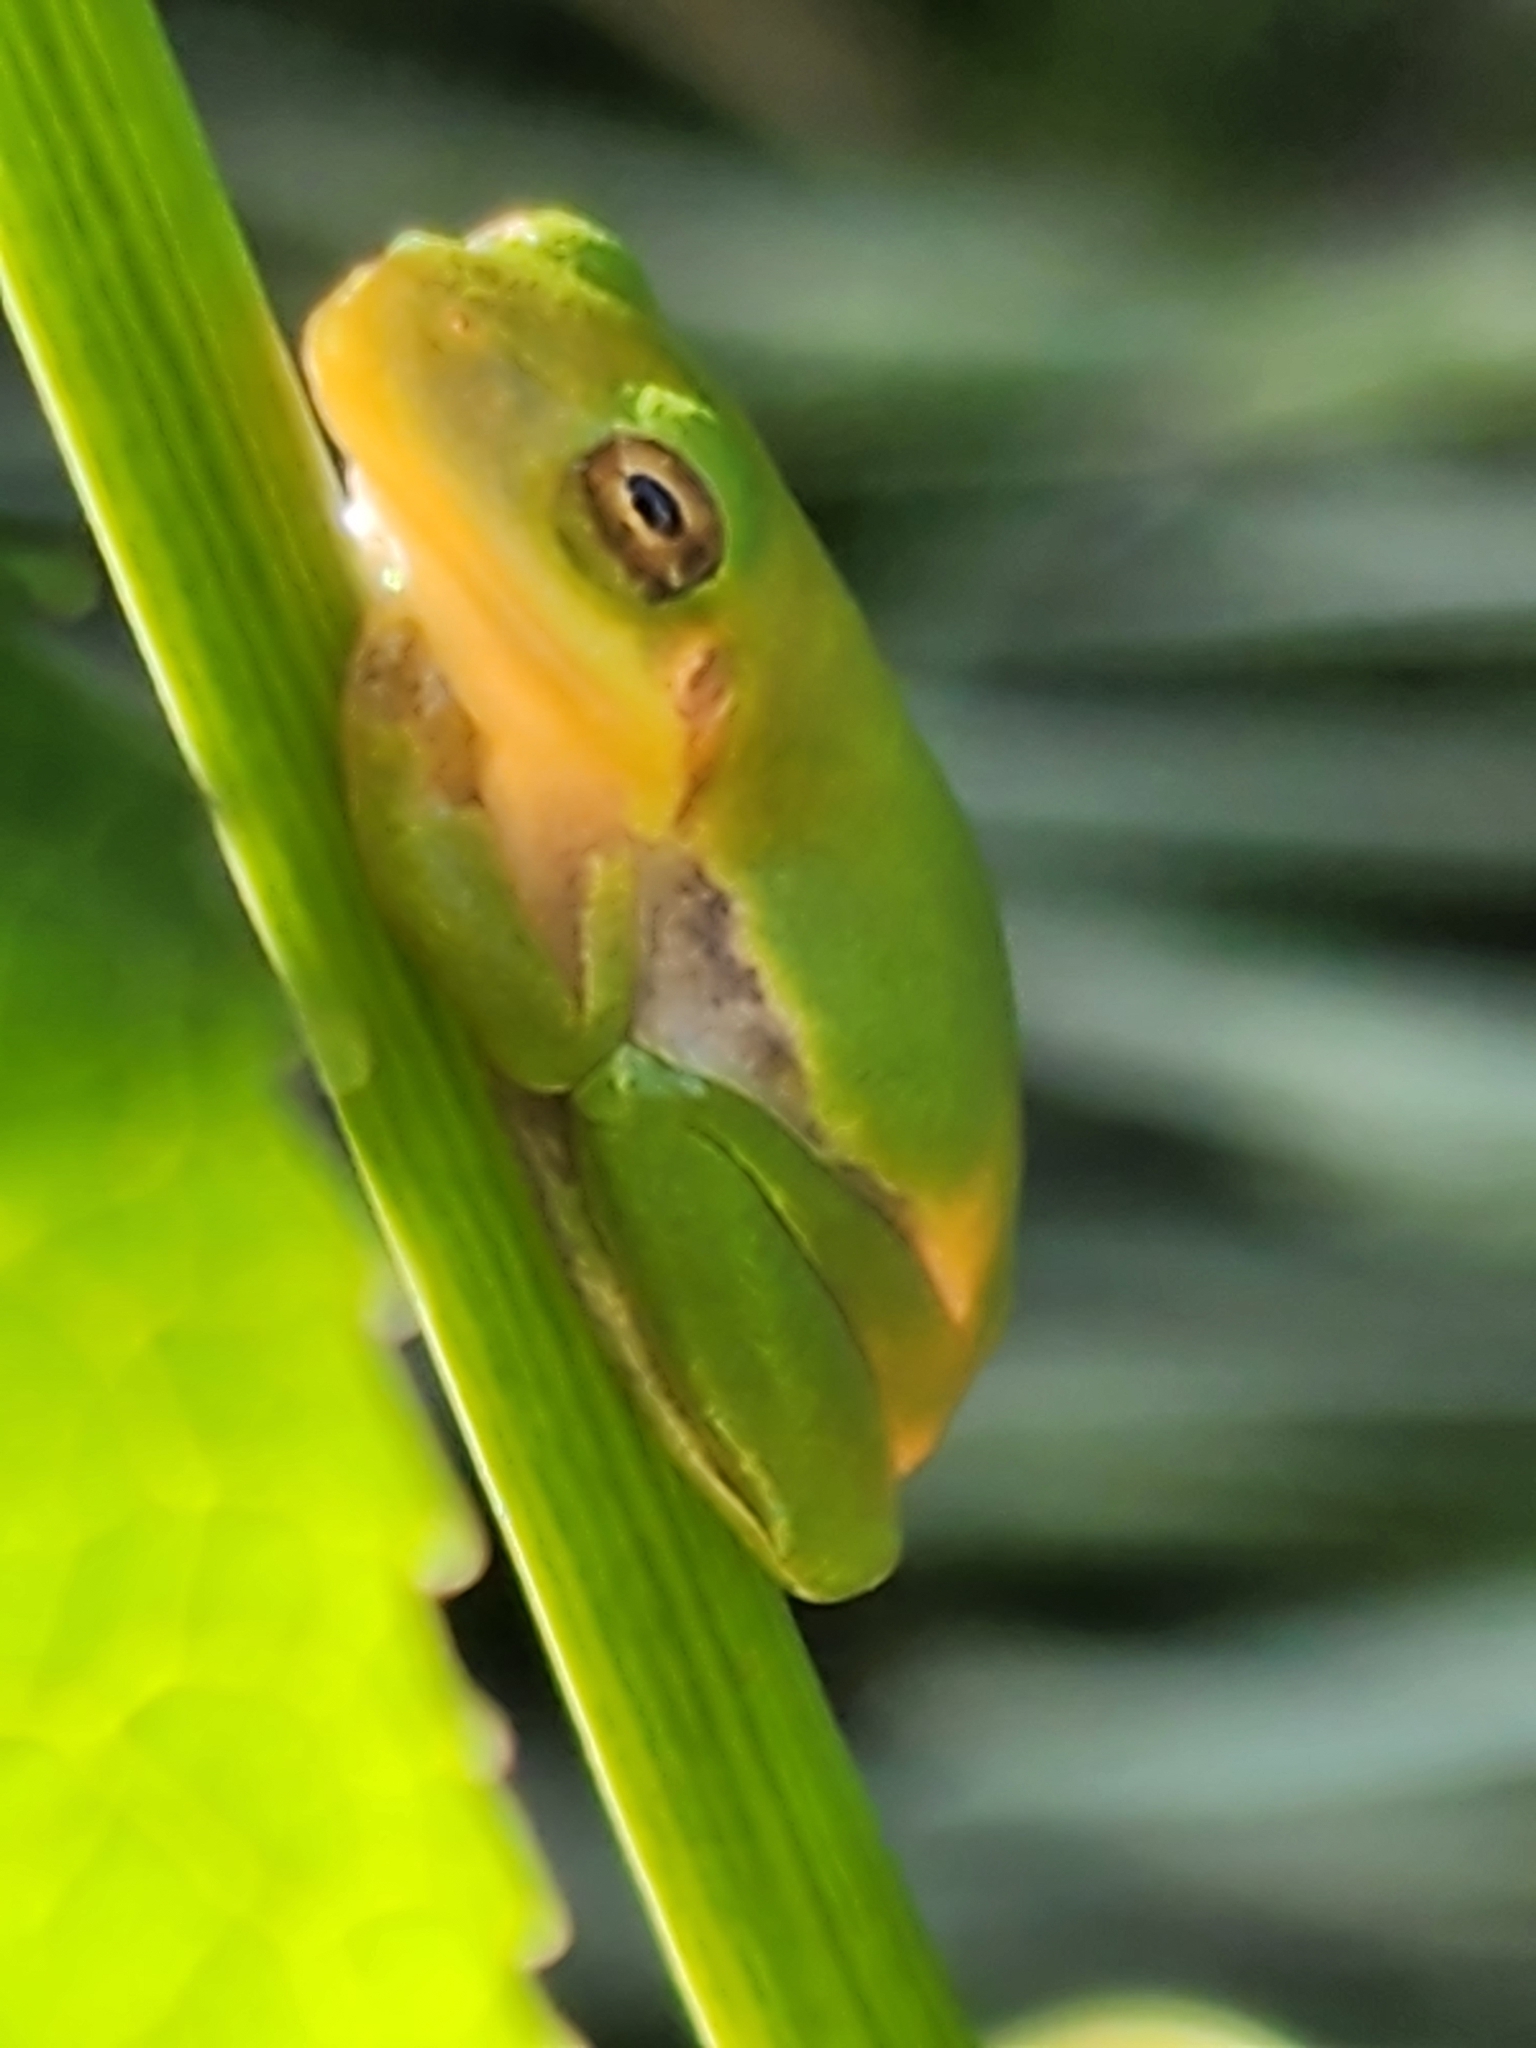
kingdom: Animalia
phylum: Chordata
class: Amphibia
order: Anura
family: Hylidae
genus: Dryophytes
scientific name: Dryophytes squirellus
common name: Squirrel treefrog
